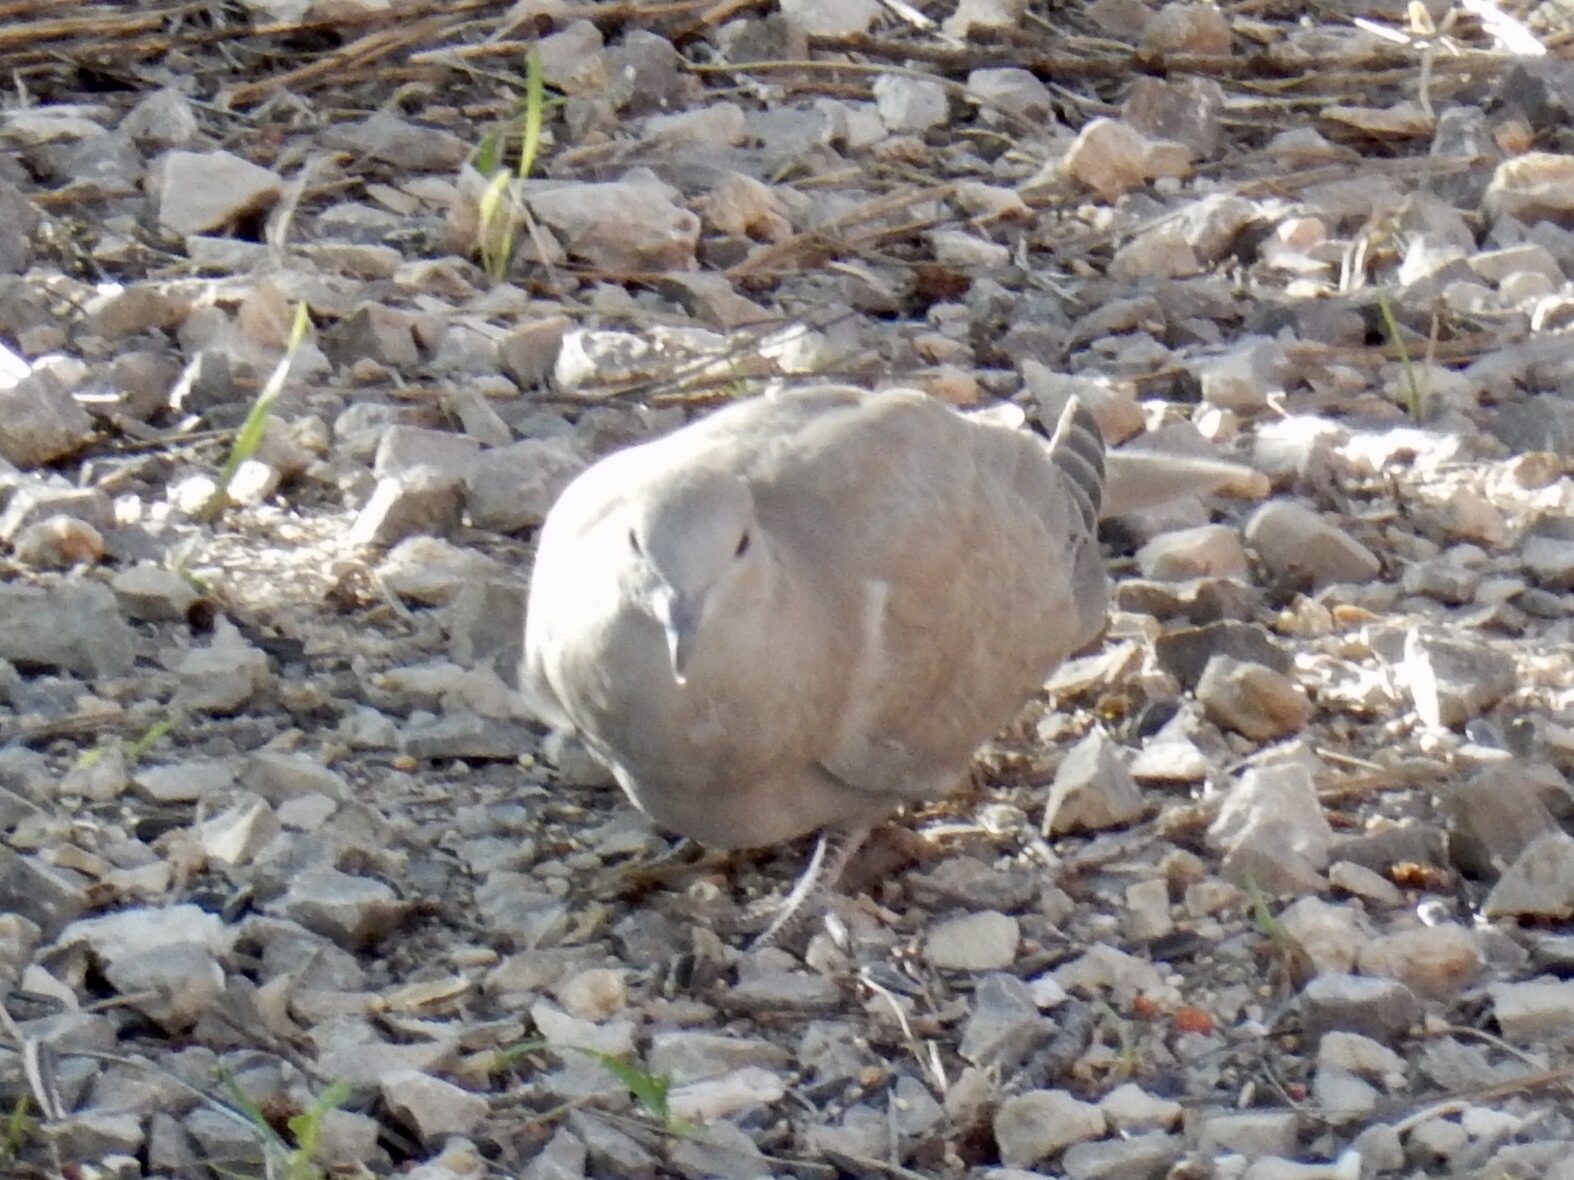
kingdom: Animalia
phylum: Chordata
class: Aves
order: Columbiformes
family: Columbidae
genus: Streptopelia
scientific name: Streptopelia decaocto
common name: Eurasian collared dove
